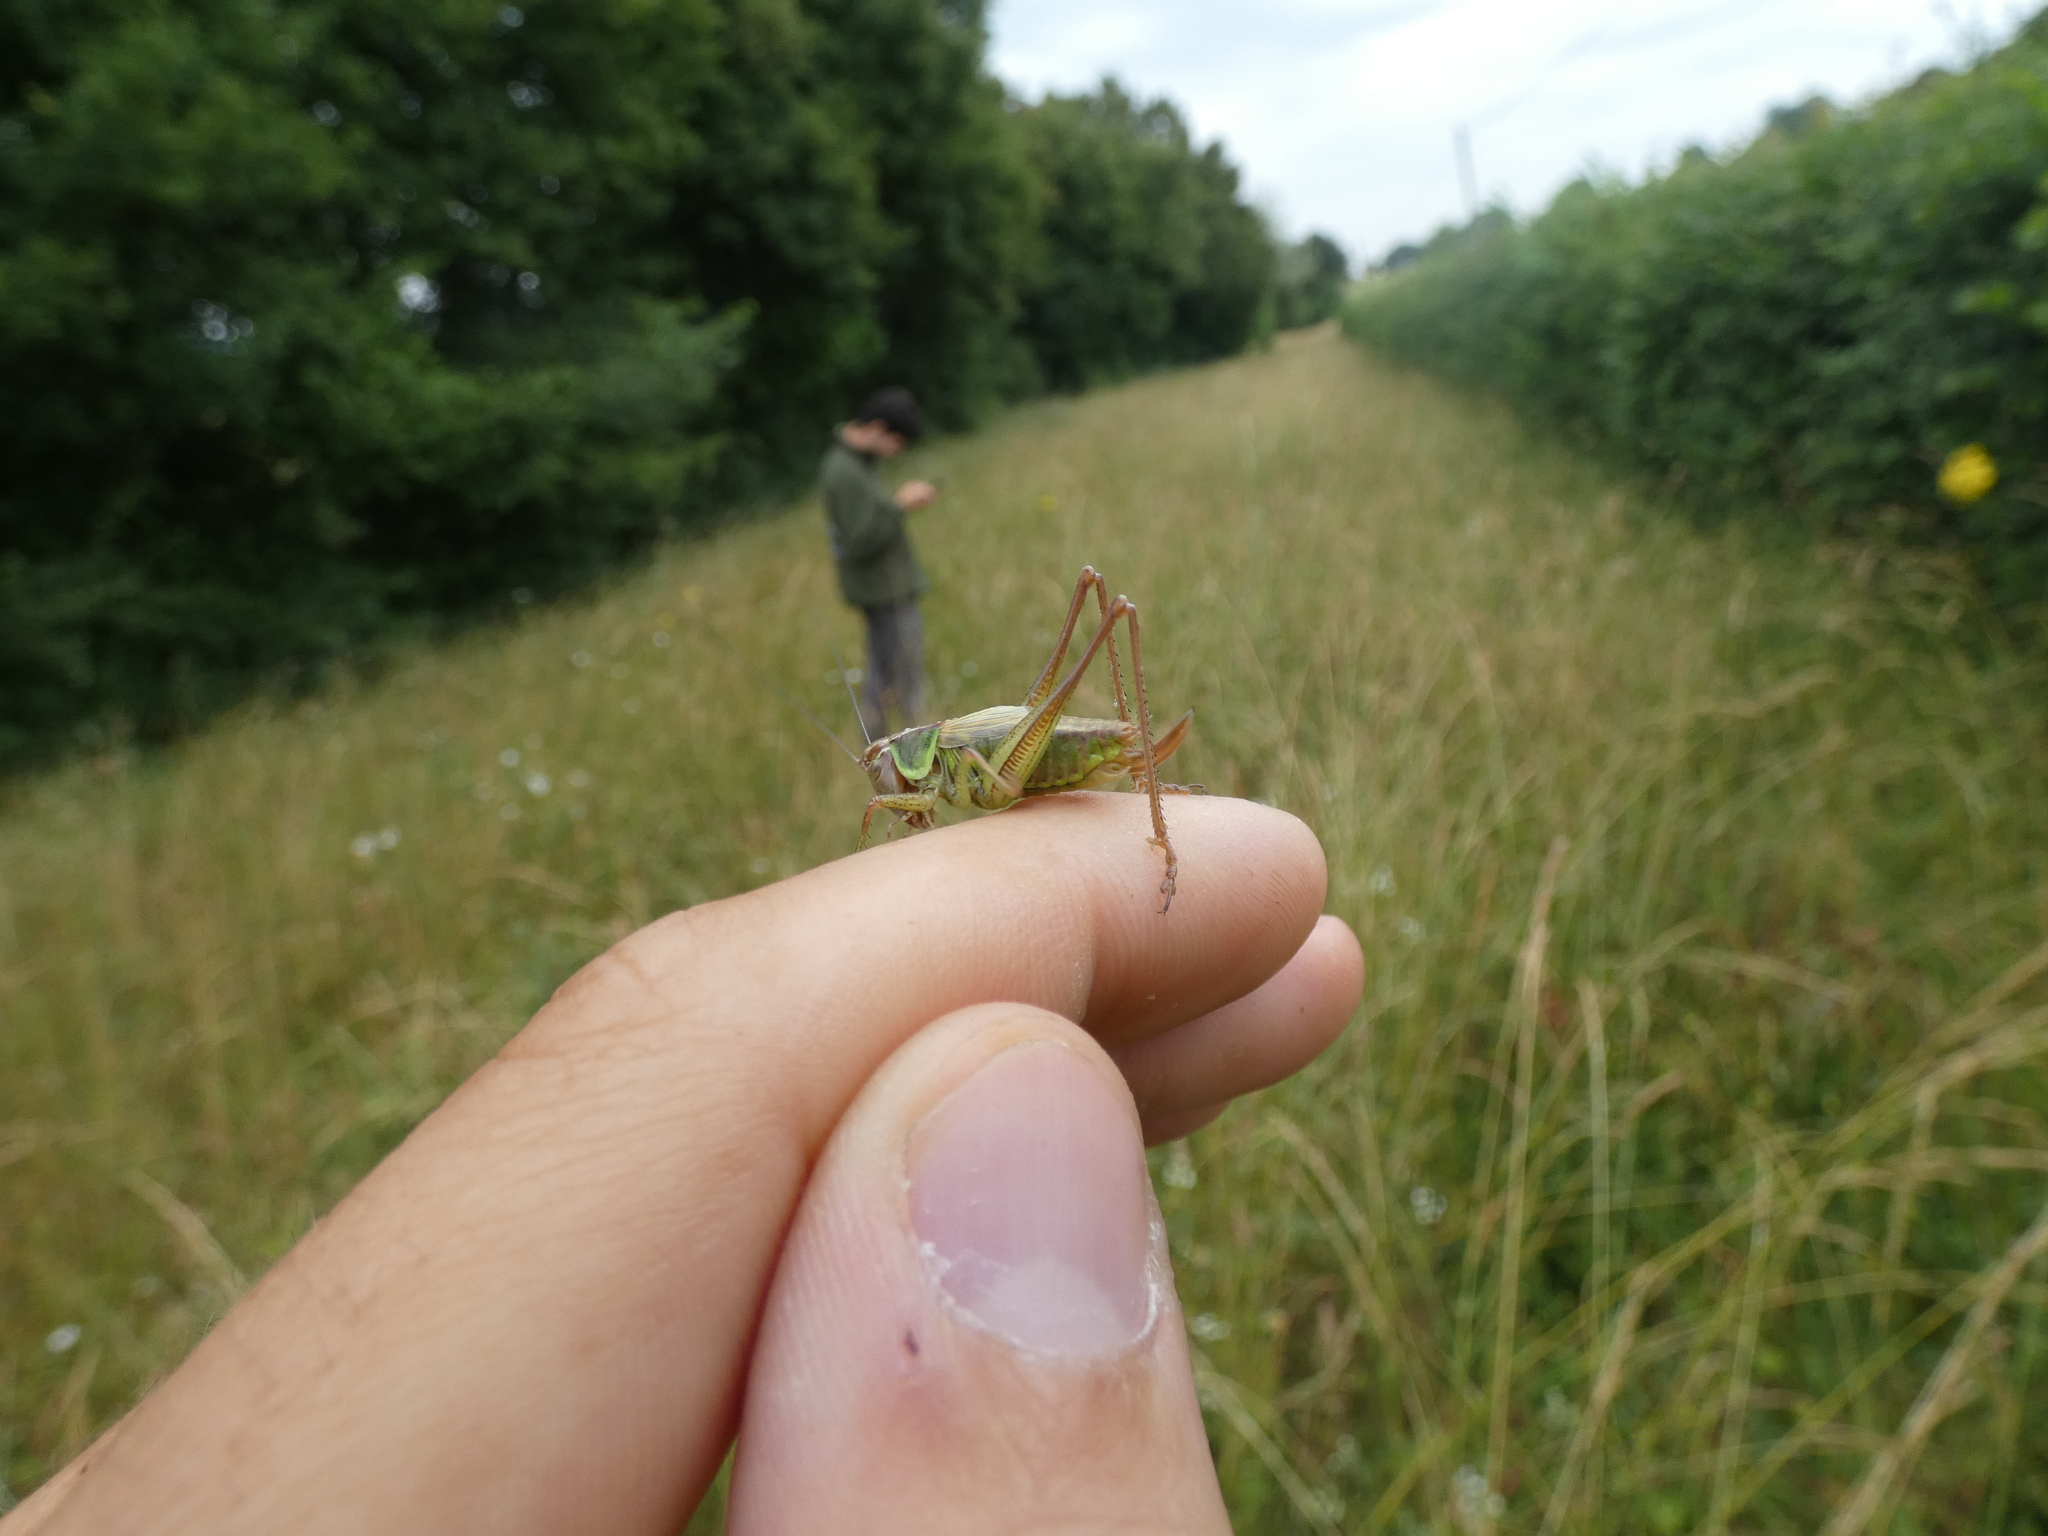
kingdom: Animalia
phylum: Arthropoda
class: Insecta
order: Orthoptera
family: Tettigoniidae
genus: Roeseliana
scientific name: Roeseliana roeselii
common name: Roesel's bush cricket
